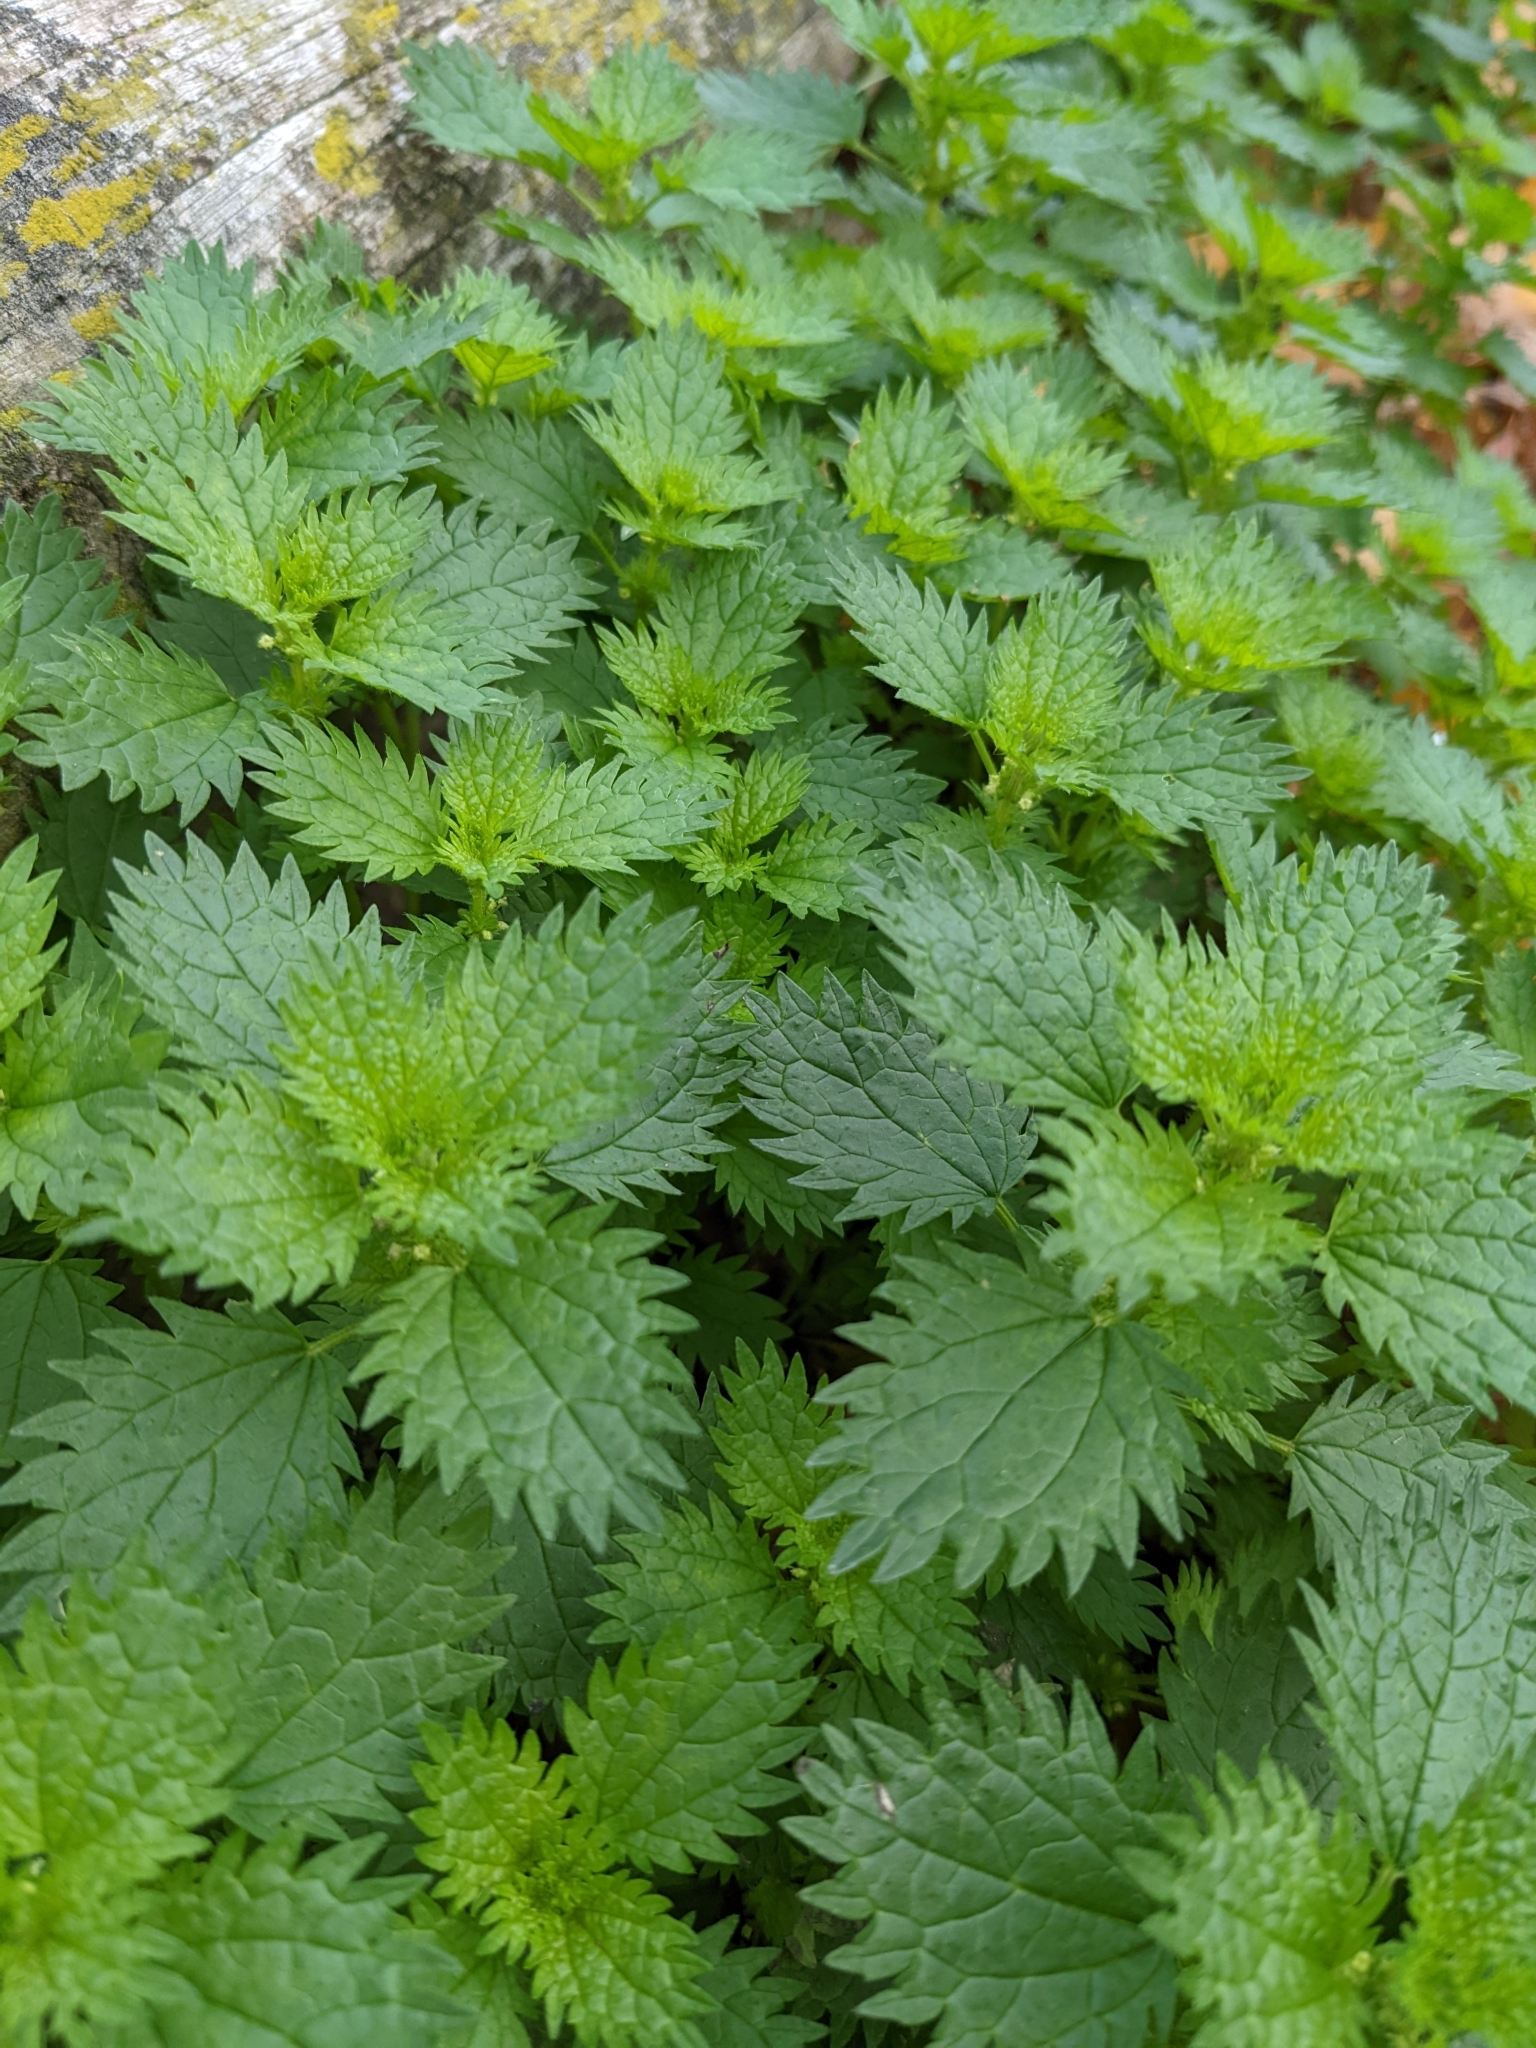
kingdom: Plantae
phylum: Tracheophyta
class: Magnoliopsida
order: Rosales
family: Urticaceae
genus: Urtica
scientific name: Urtica dioica
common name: Common nettle
